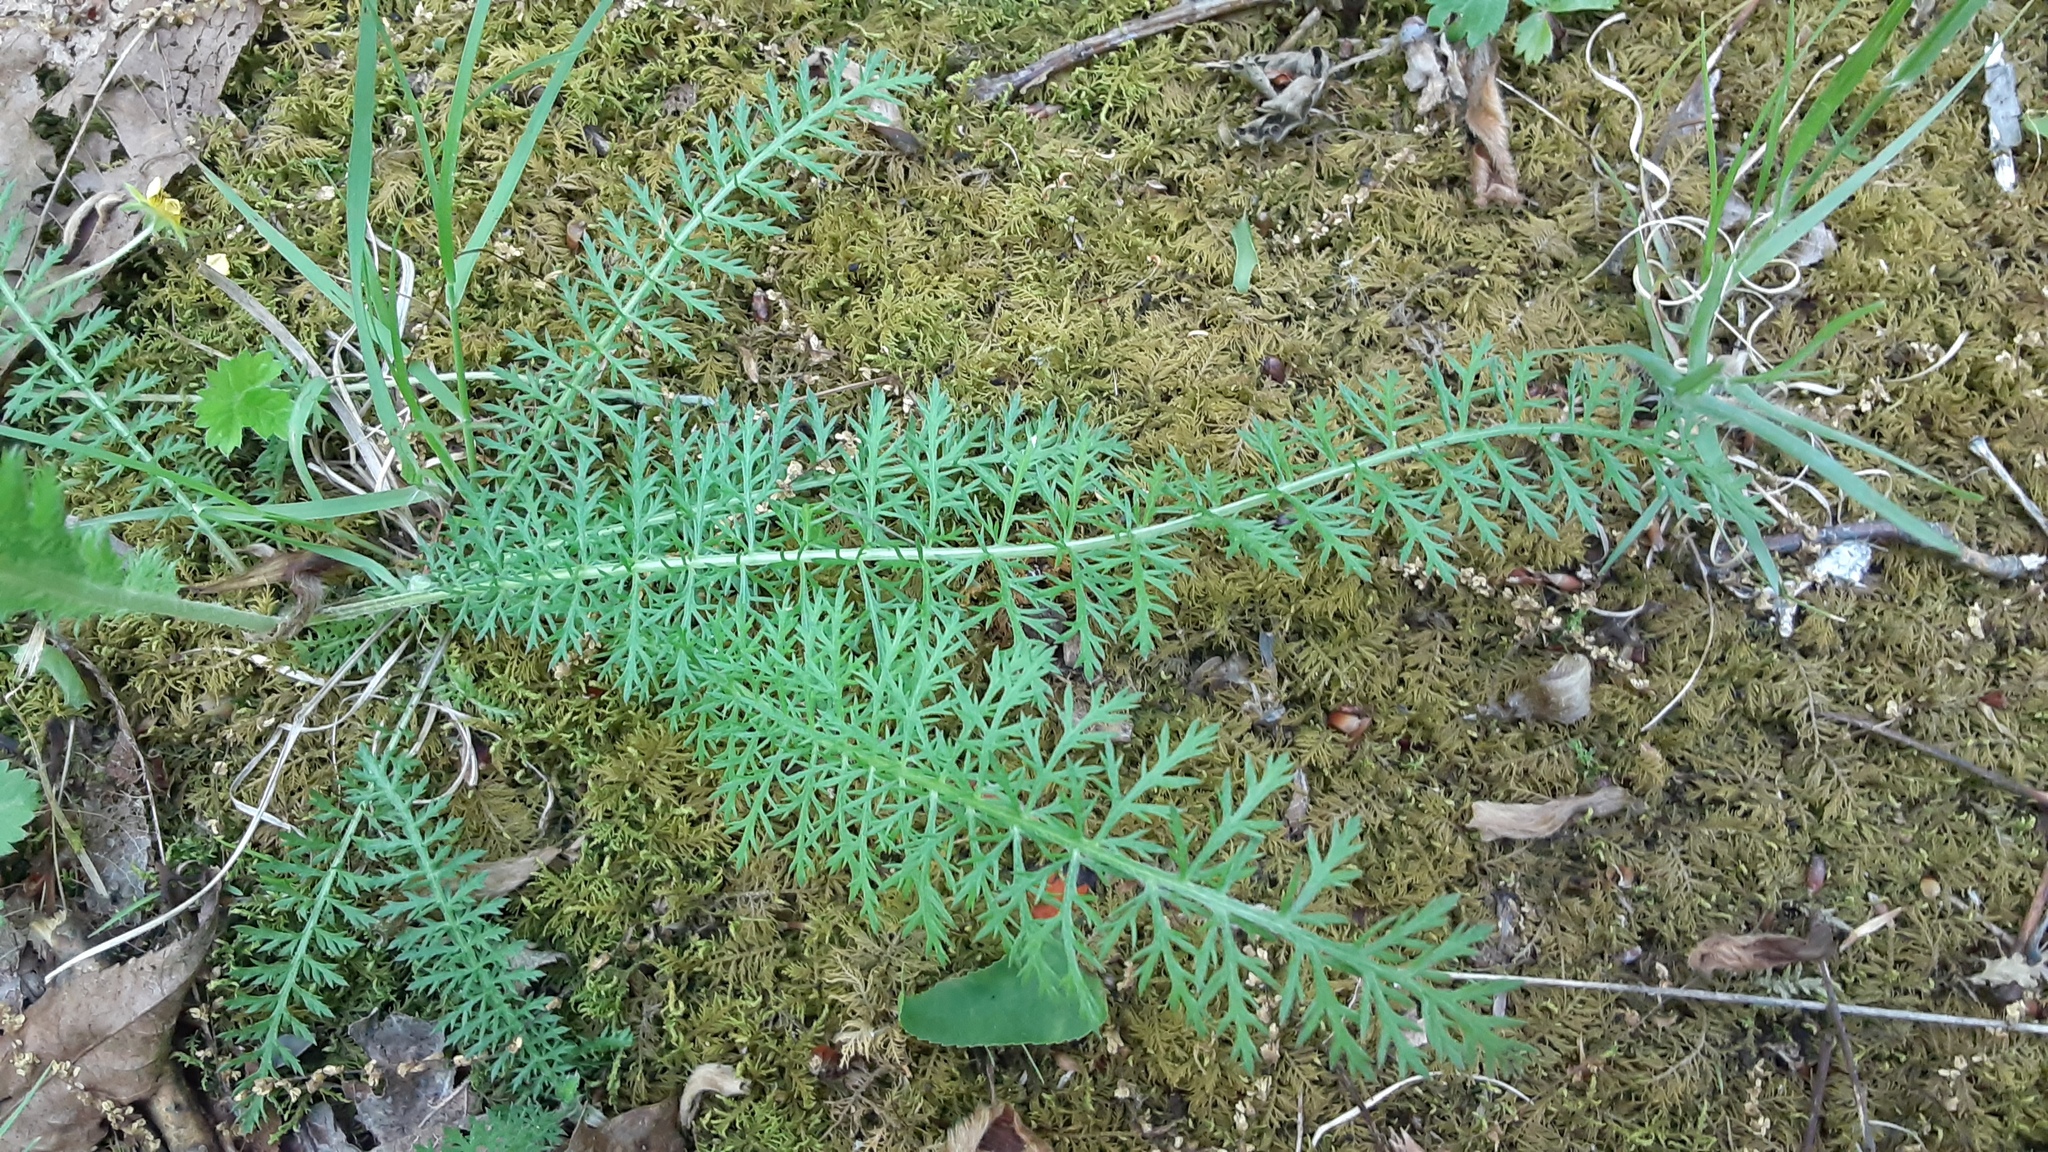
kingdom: Plantae
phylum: Tracheophyta
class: Magnoliopsida
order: Asterales
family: Asteraceae
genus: Achillea
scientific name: Achillea millefolium
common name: Yarrow
